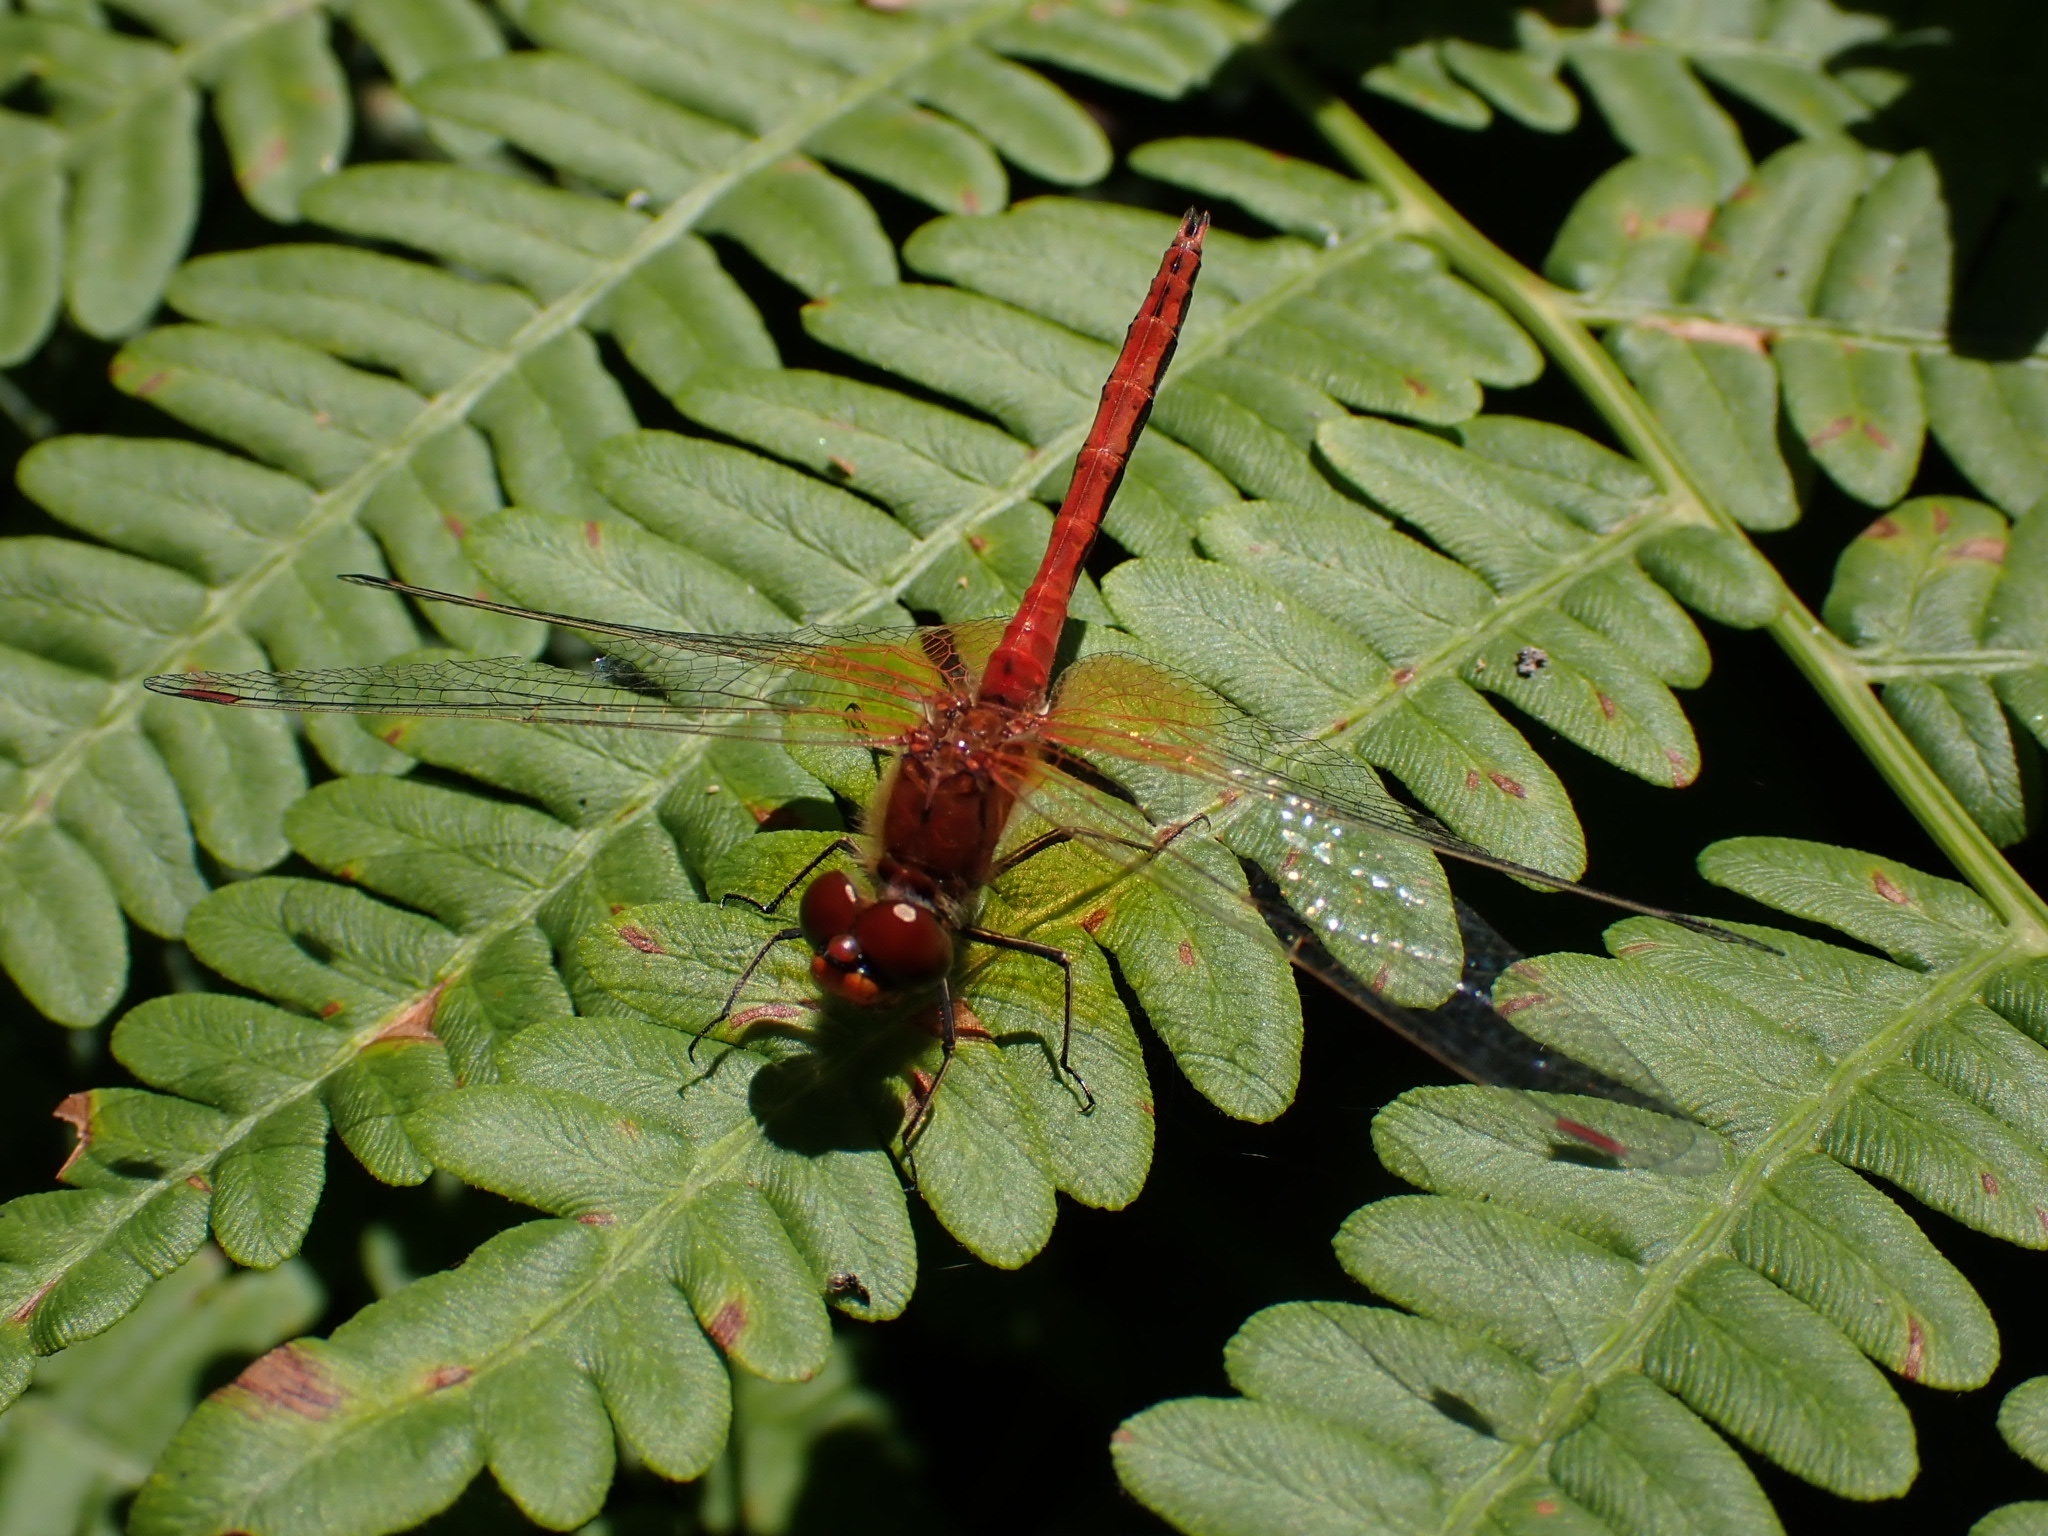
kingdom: Animalia
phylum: Arthropoda
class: Insecta
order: Odonata
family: Libellulidae
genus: Sympetrum
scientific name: Sympetrum flaveolum
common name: Yellow-winged darter
